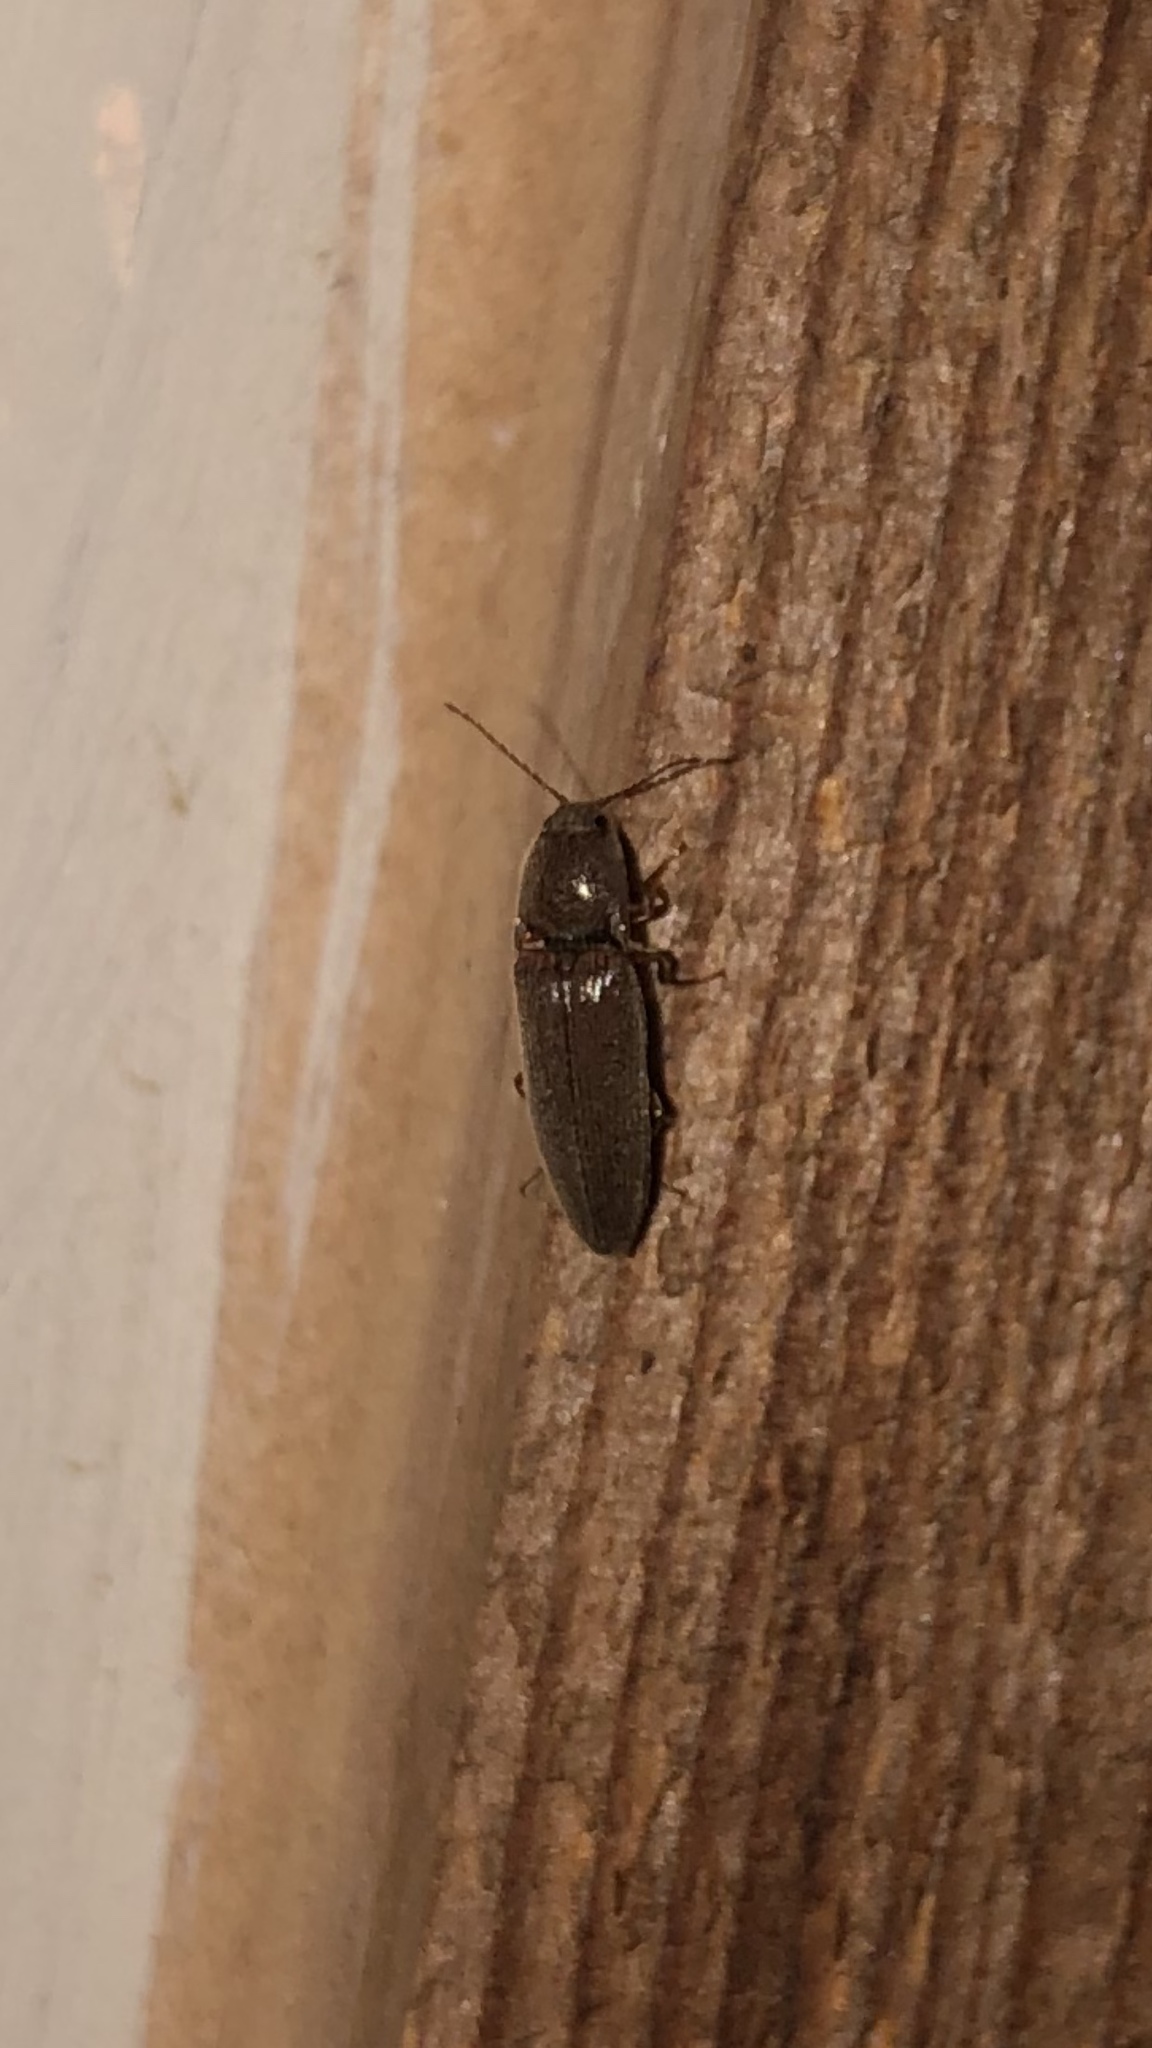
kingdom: Animalia
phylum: Arthropoda
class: Insecta
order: Coleoptera
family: Elateridae
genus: Melanotus
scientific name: Melanotus
